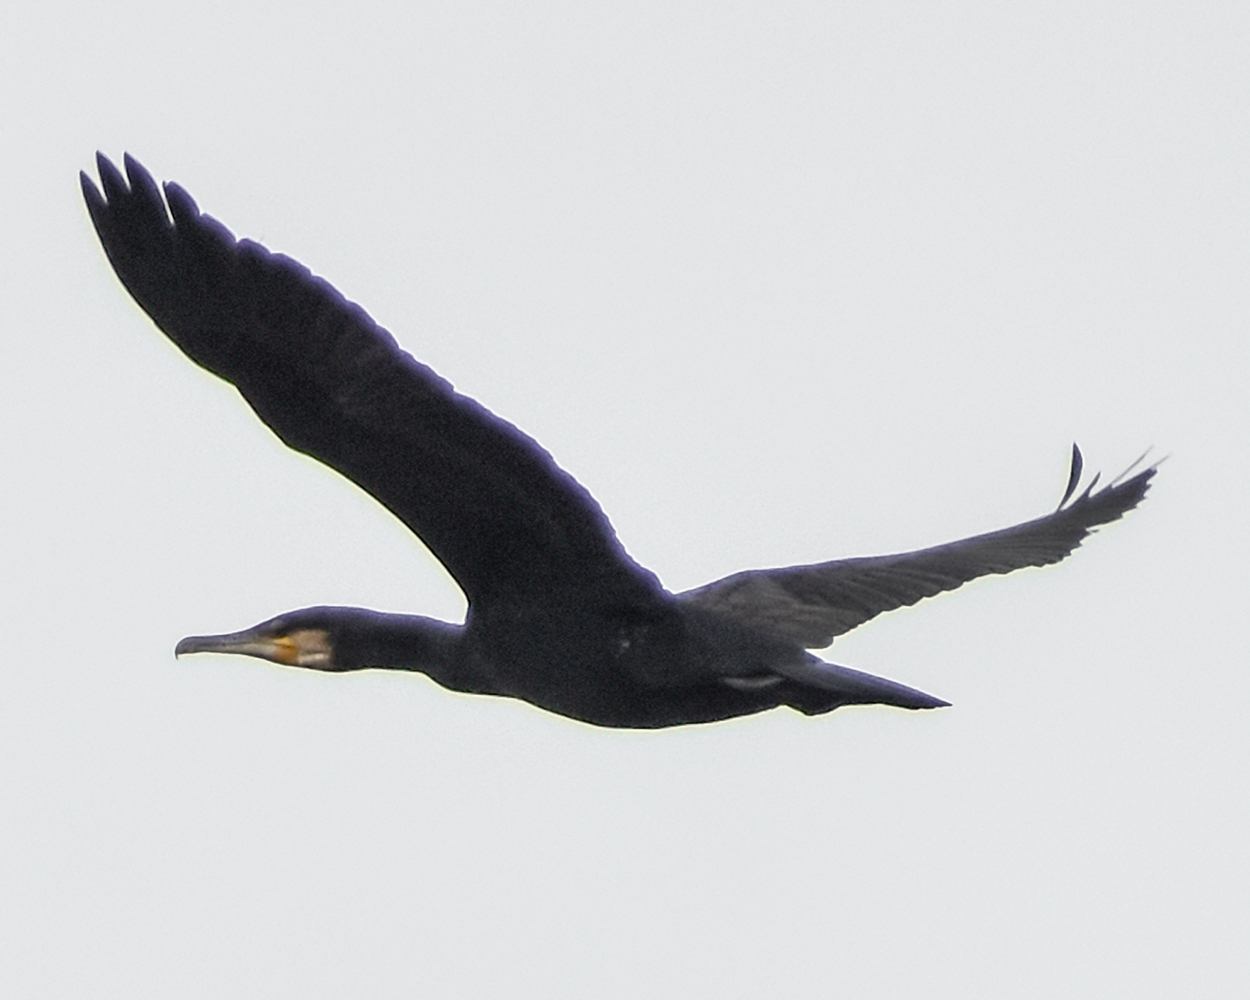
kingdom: Animalia
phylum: Chordata
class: Aves
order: Suliformes
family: Phalacrocoracidae
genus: Phalacrocorax
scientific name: Phalacrocorax carbo
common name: Great cormorant
